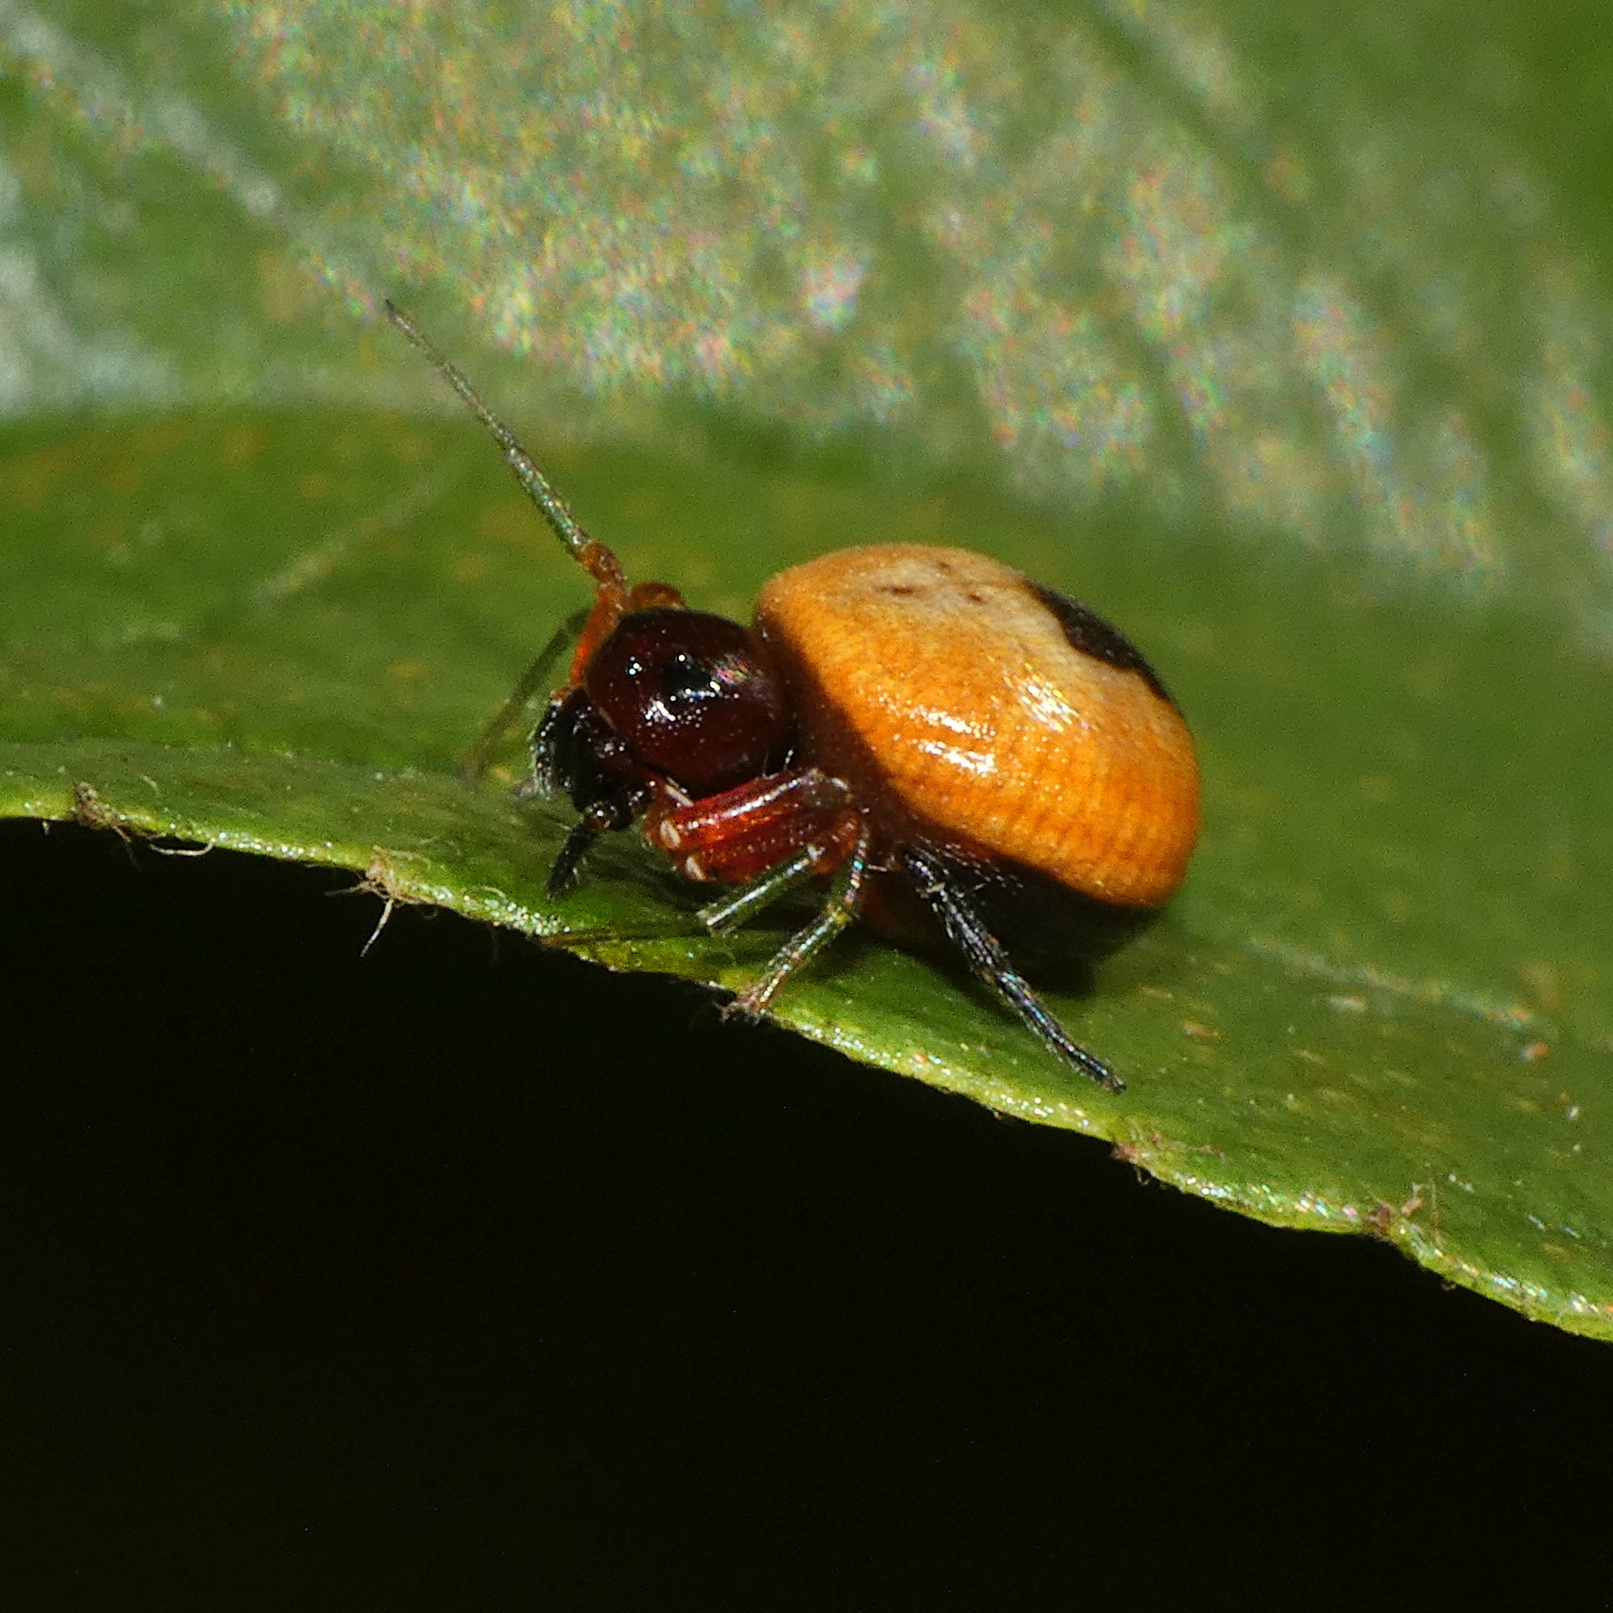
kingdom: Animalia
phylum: Arthropoda
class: Arachnida
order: Araneae
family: Thomisidae
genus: Mystaria
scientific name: Mystaria savannensis
